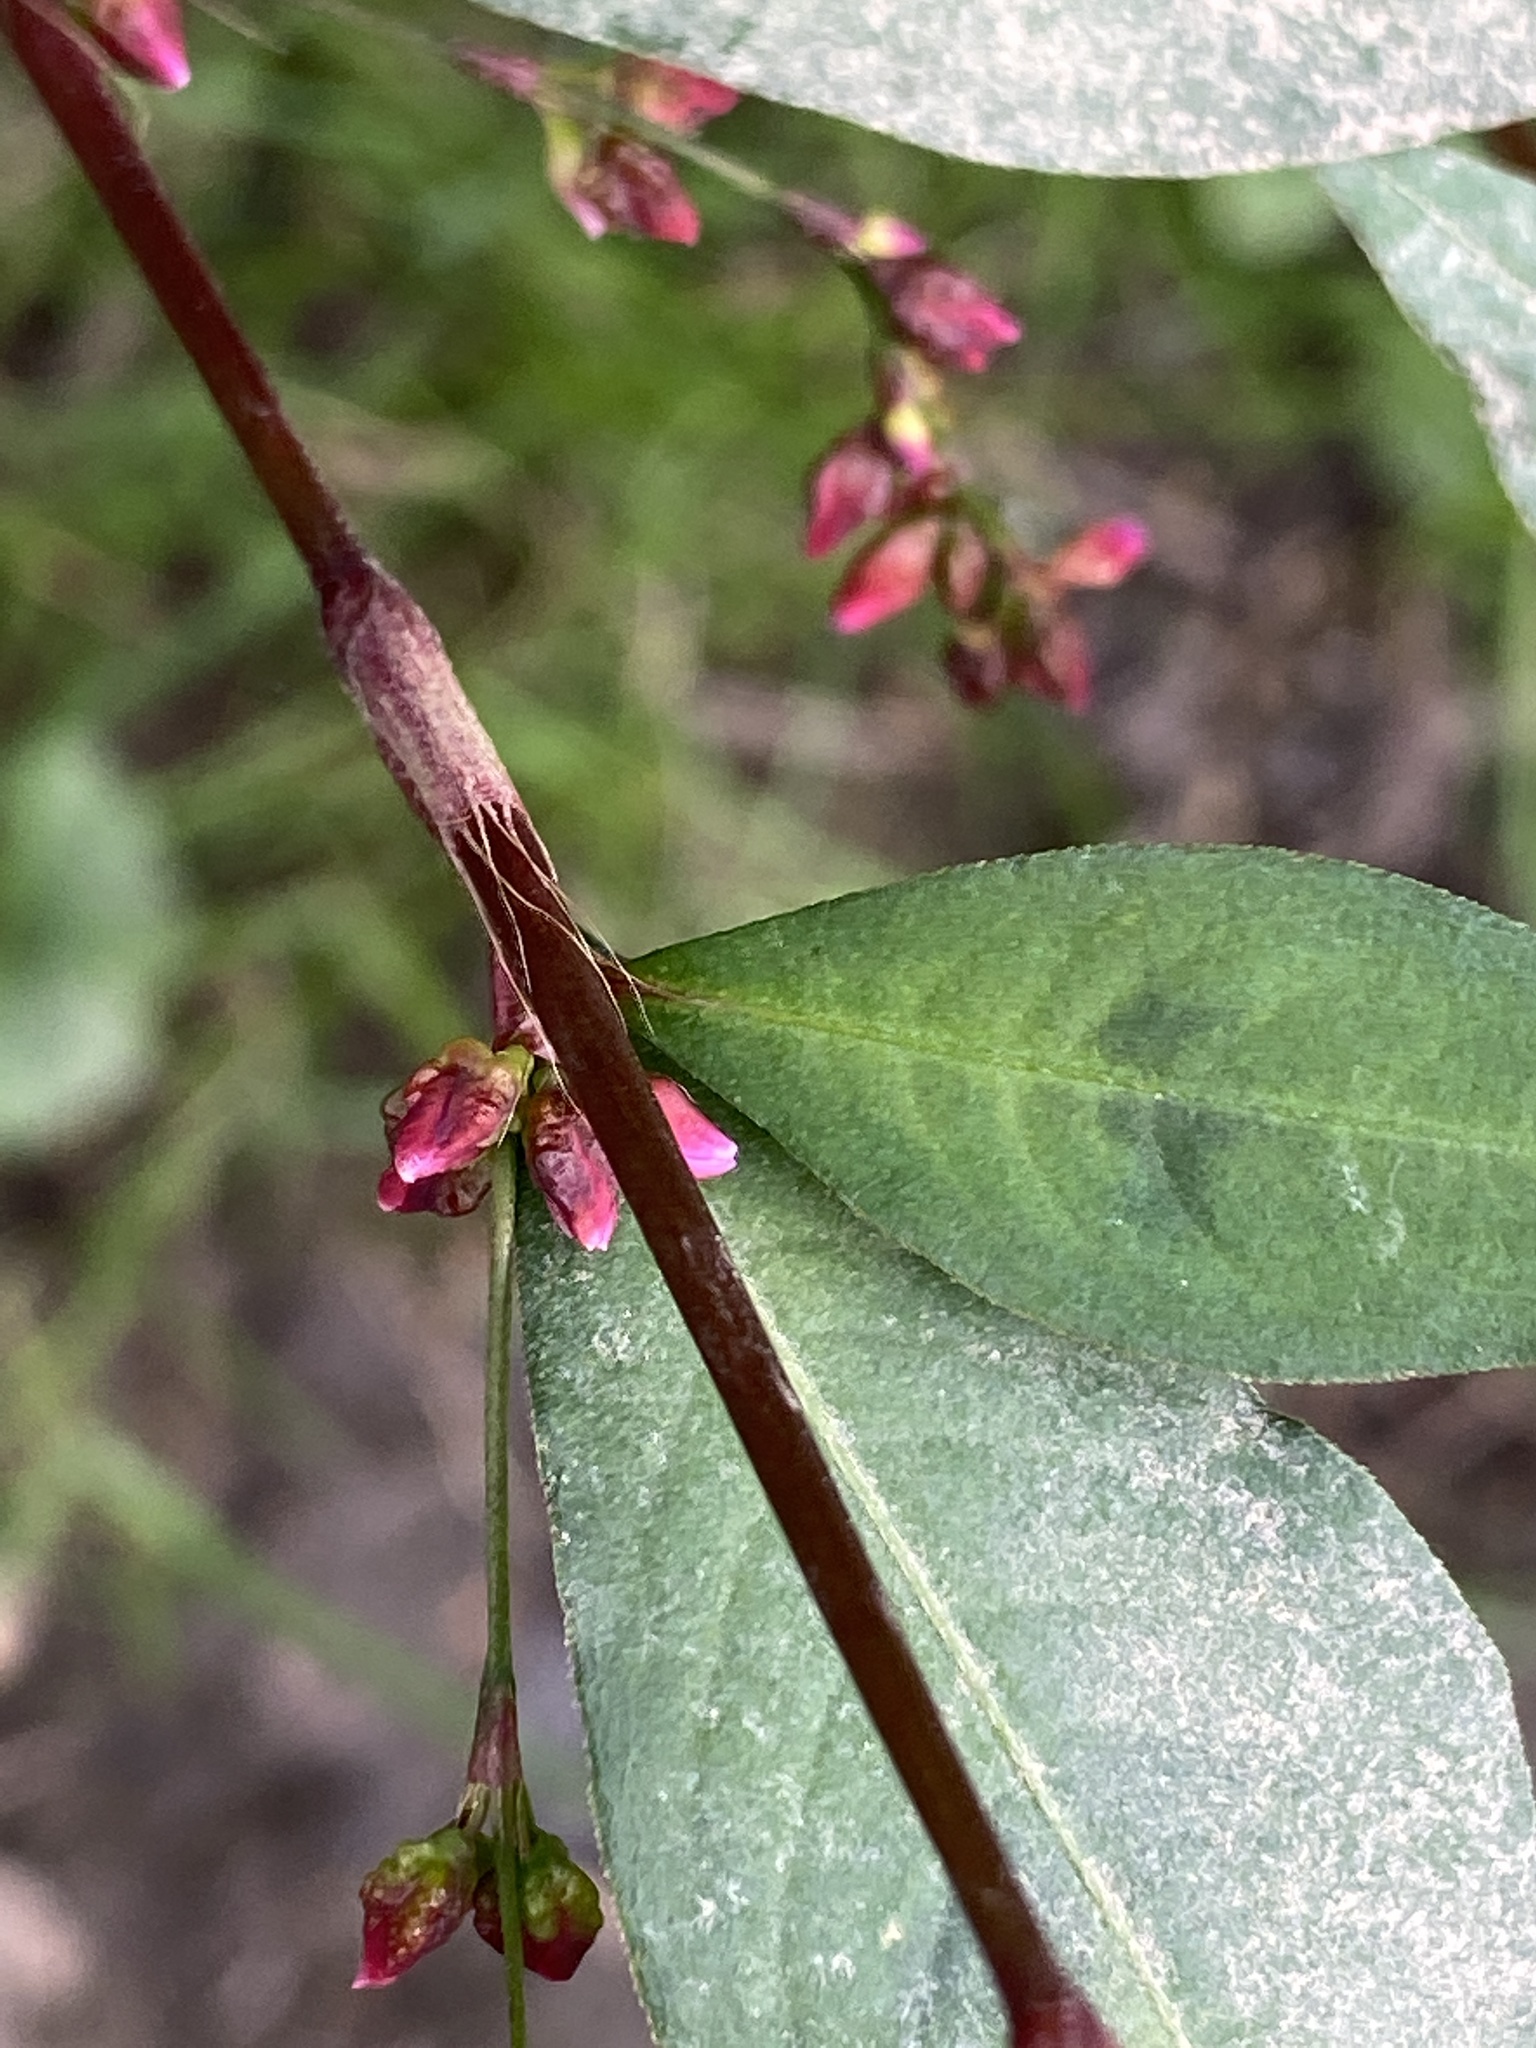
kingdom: Plantae
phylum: Tracheophyta
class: Magnoliopsida
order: Caryophyllales
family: Polygonaceae
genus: Persicaria
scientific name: Persicaria hydropiper
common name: Water-pepper
